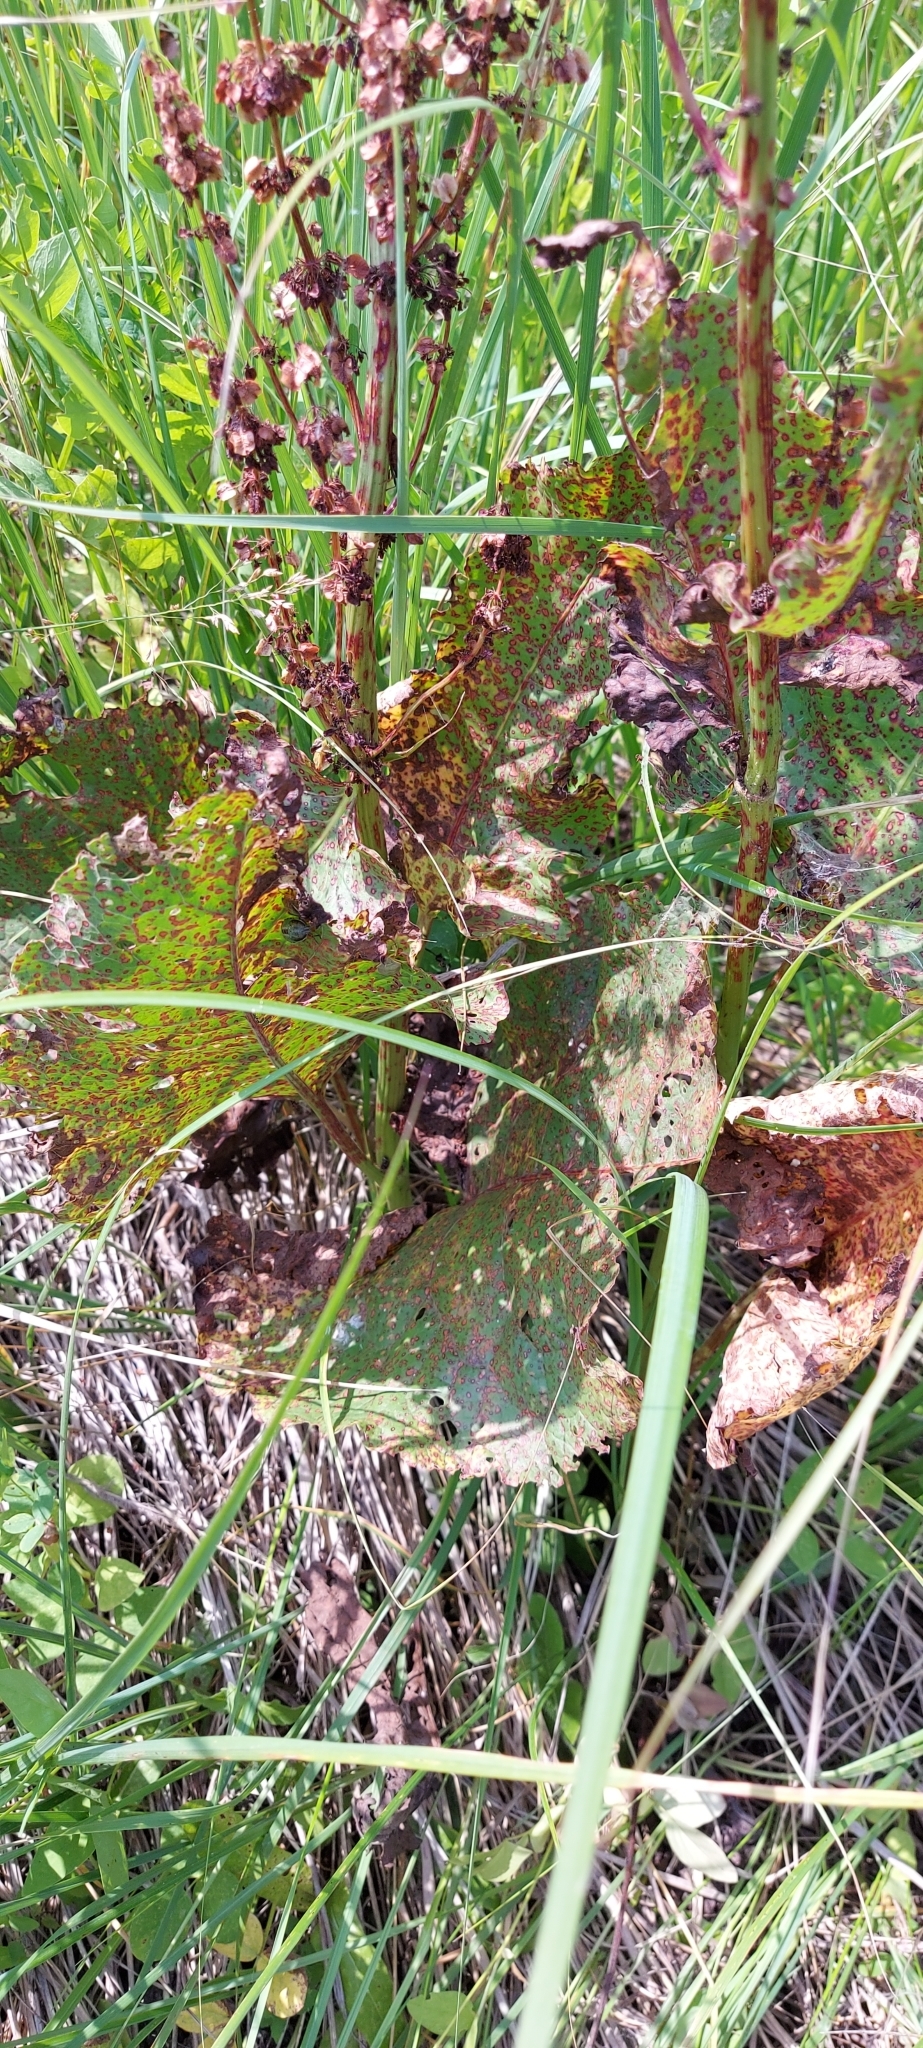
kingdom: Plantae
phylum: Tracheophyta
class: Magnoliopsida
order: Caryophyllales
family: Polygonaceae
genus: Rumex
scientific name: Rumex confertus
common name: Russian dock
